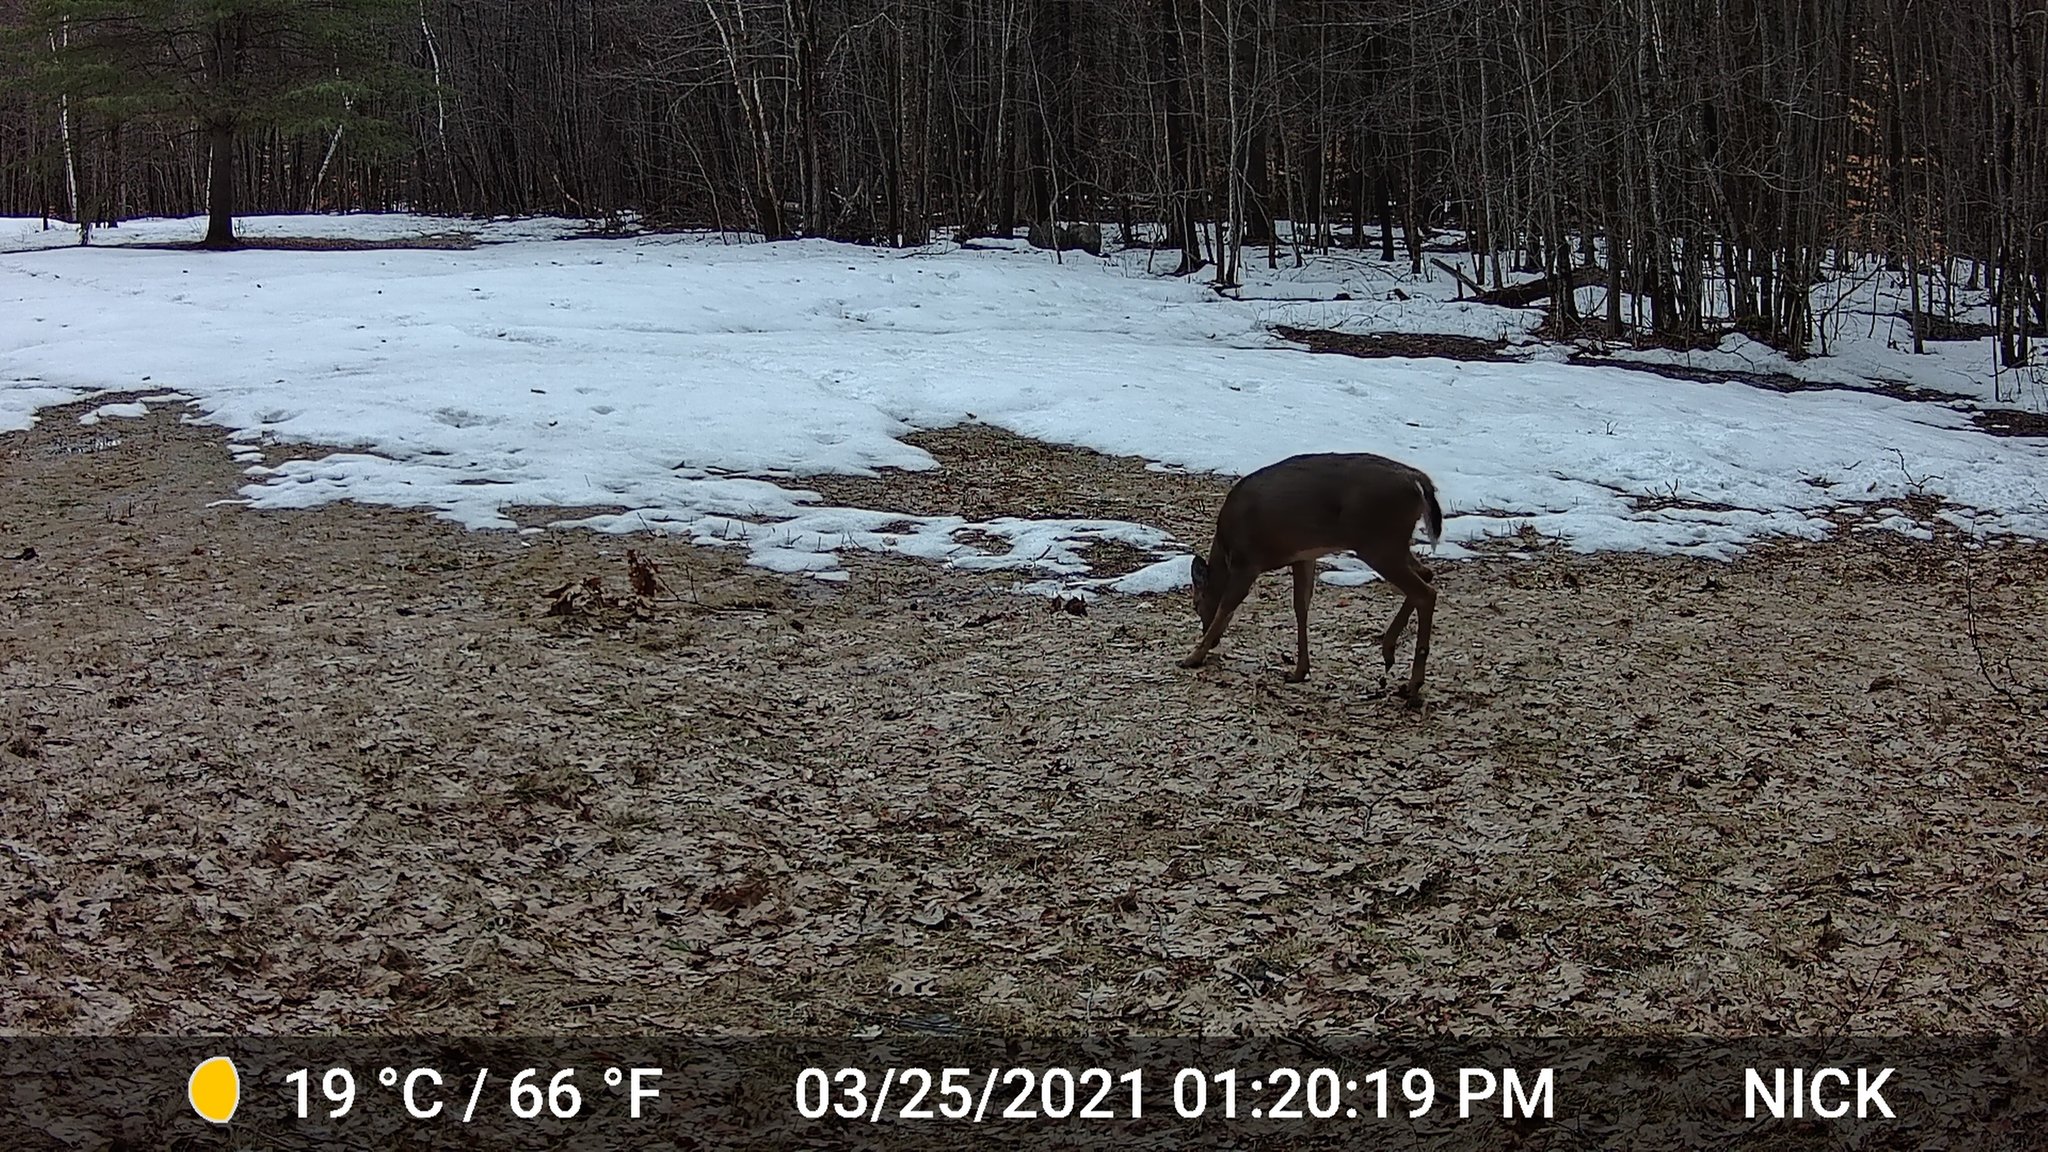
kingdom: Animalia
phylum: Chordata
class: Mammalia
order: Artiodactyla
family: Cervidae
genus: Odocoileus
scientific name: Odocoileus virginianus
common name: White-tailed deer
